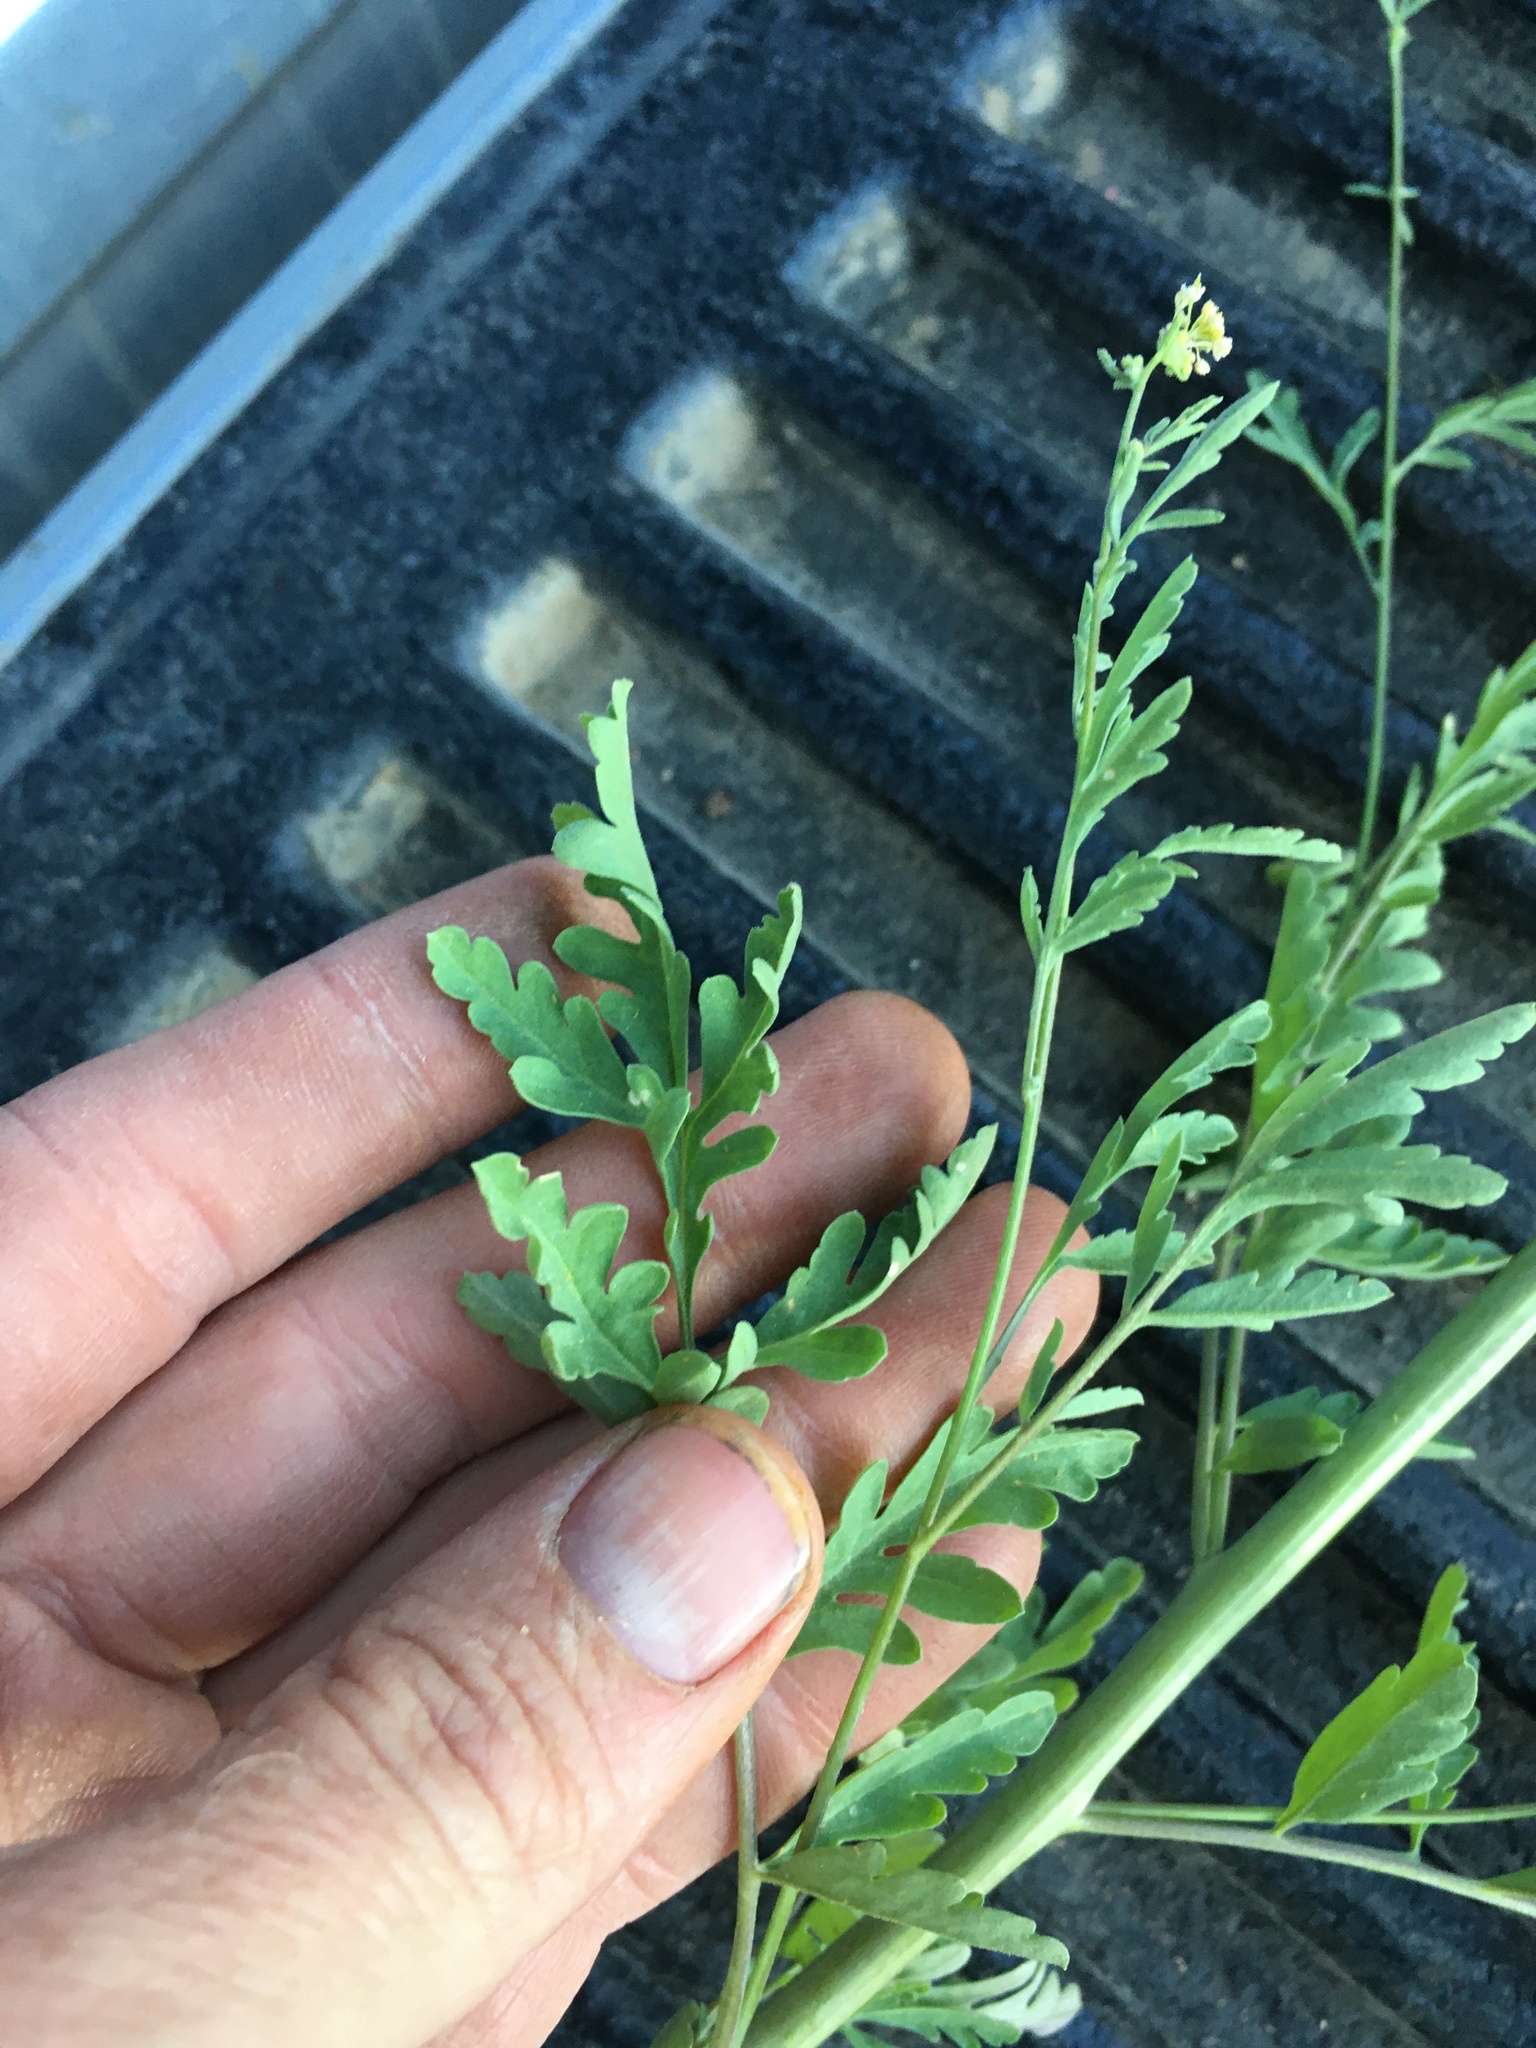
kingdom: Plantae
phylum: Tracheophyta
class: Magnoliopsida
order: Brassicales
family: Brassicaceae
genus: Descurainia
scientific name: Descurainia californica
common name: California tansy mustard
